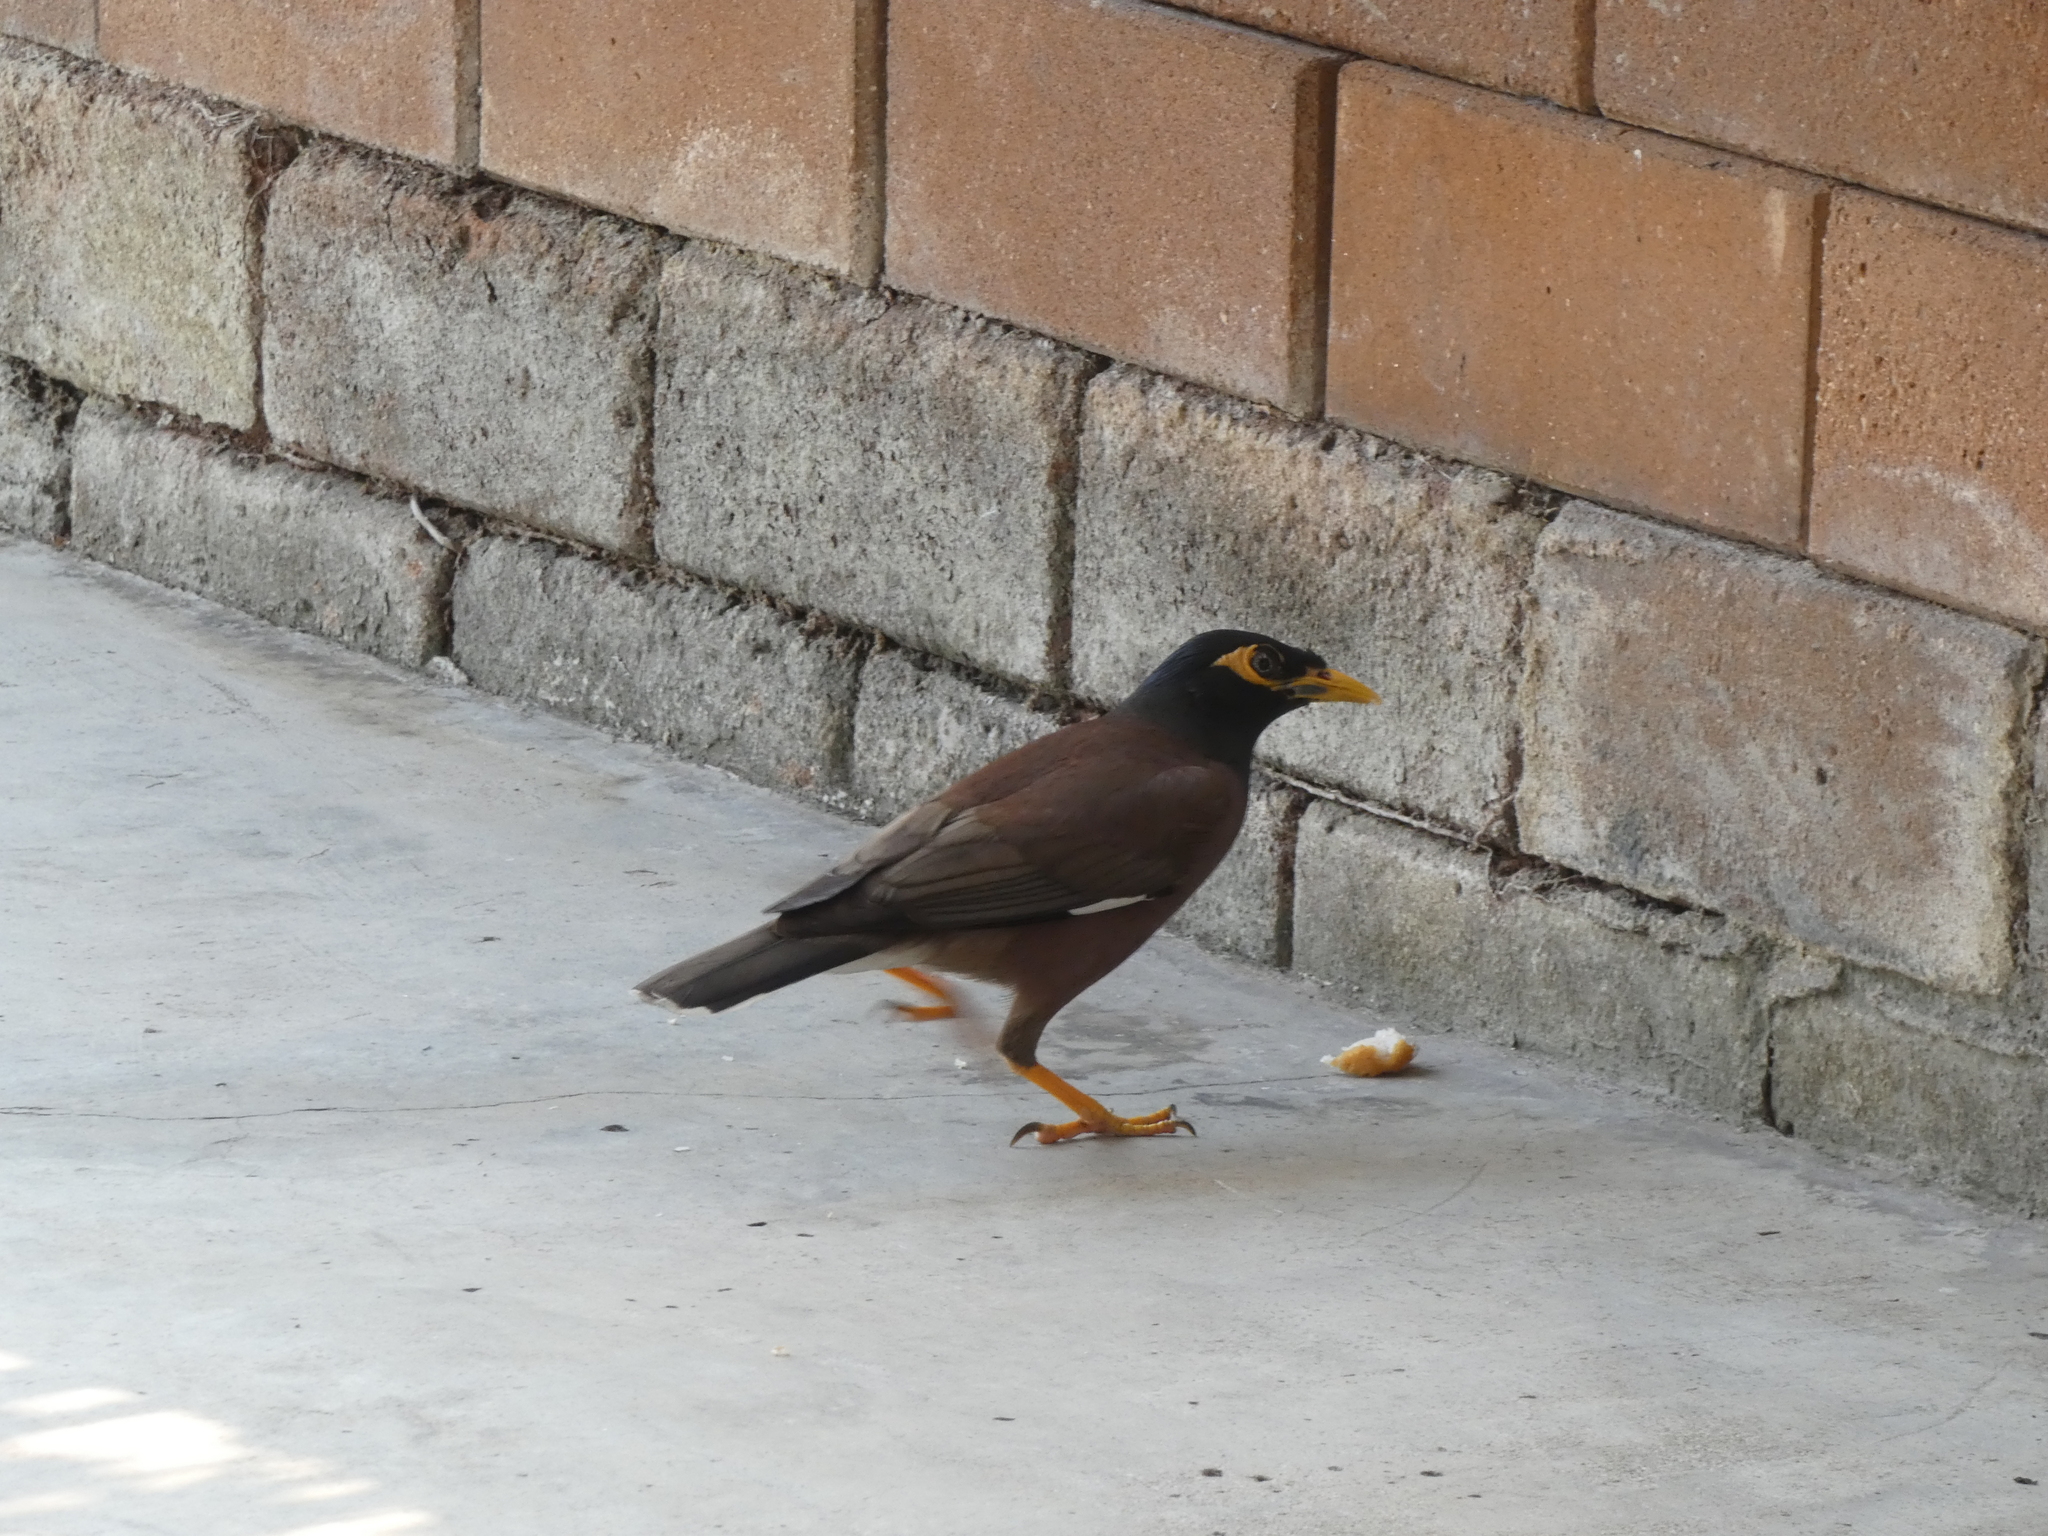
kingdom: Animalia
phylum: Chordata
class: Aves
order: Passeriformes
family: Sturnidae
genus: Acridotheres
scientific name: Acridotheres tristis
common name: Common myna
